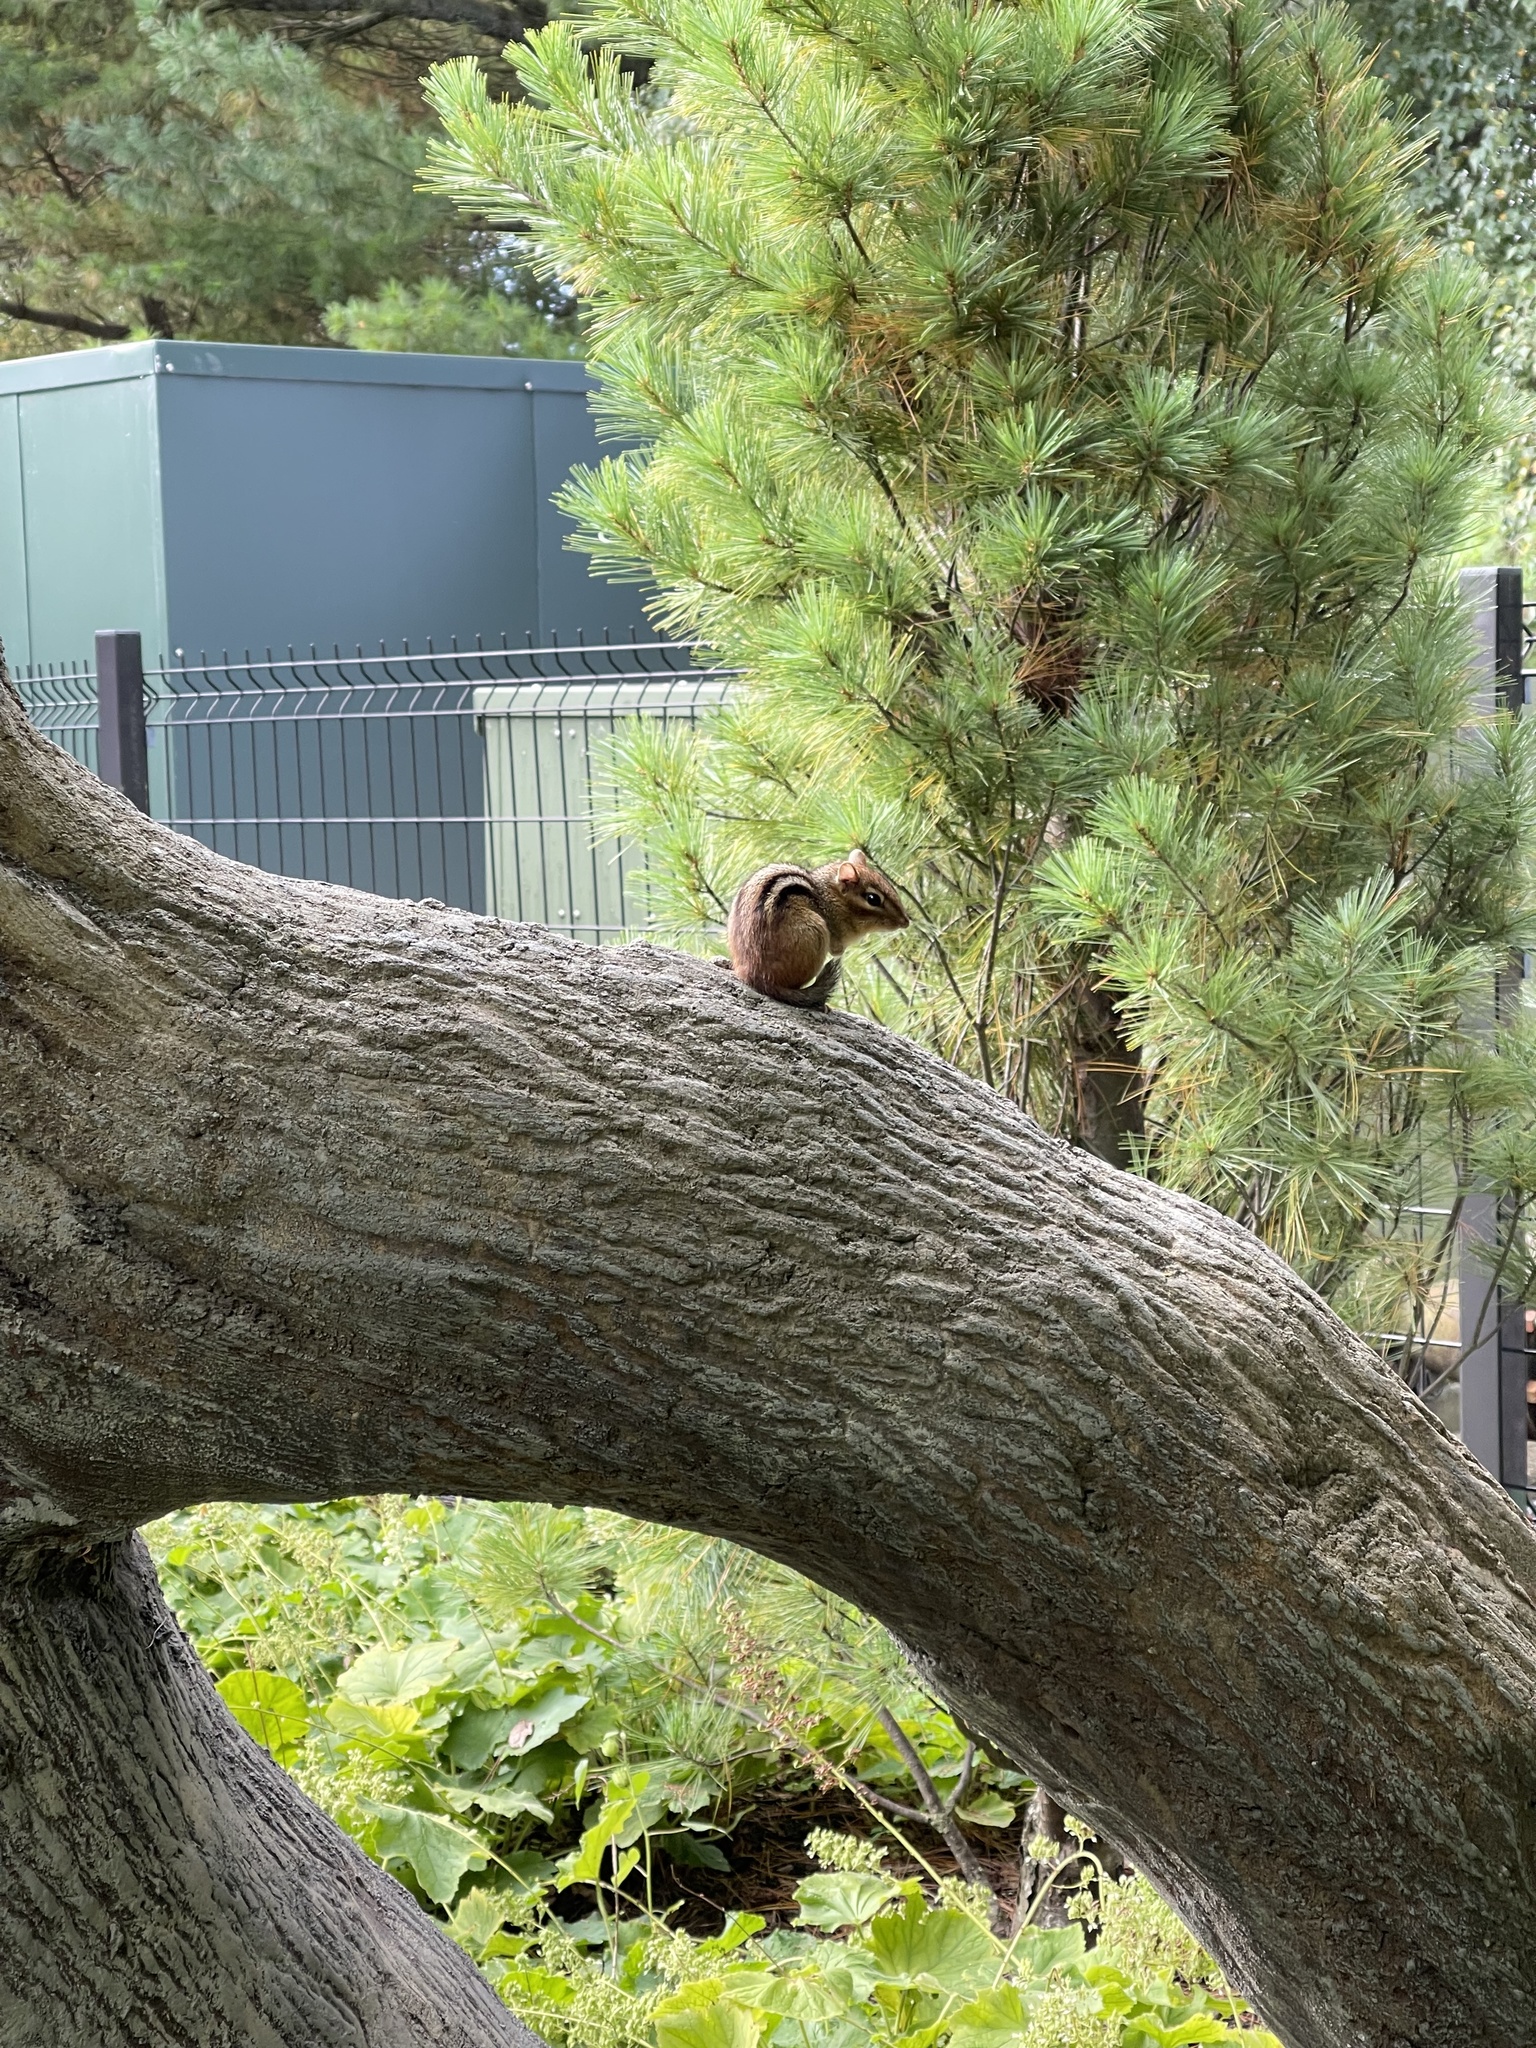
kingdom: Animalia
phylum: Chordata
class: Mammalia
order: Rodentia
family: Sciuridae
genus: Tamias
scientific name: Tamias striatus
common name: Eastern chipmunk
